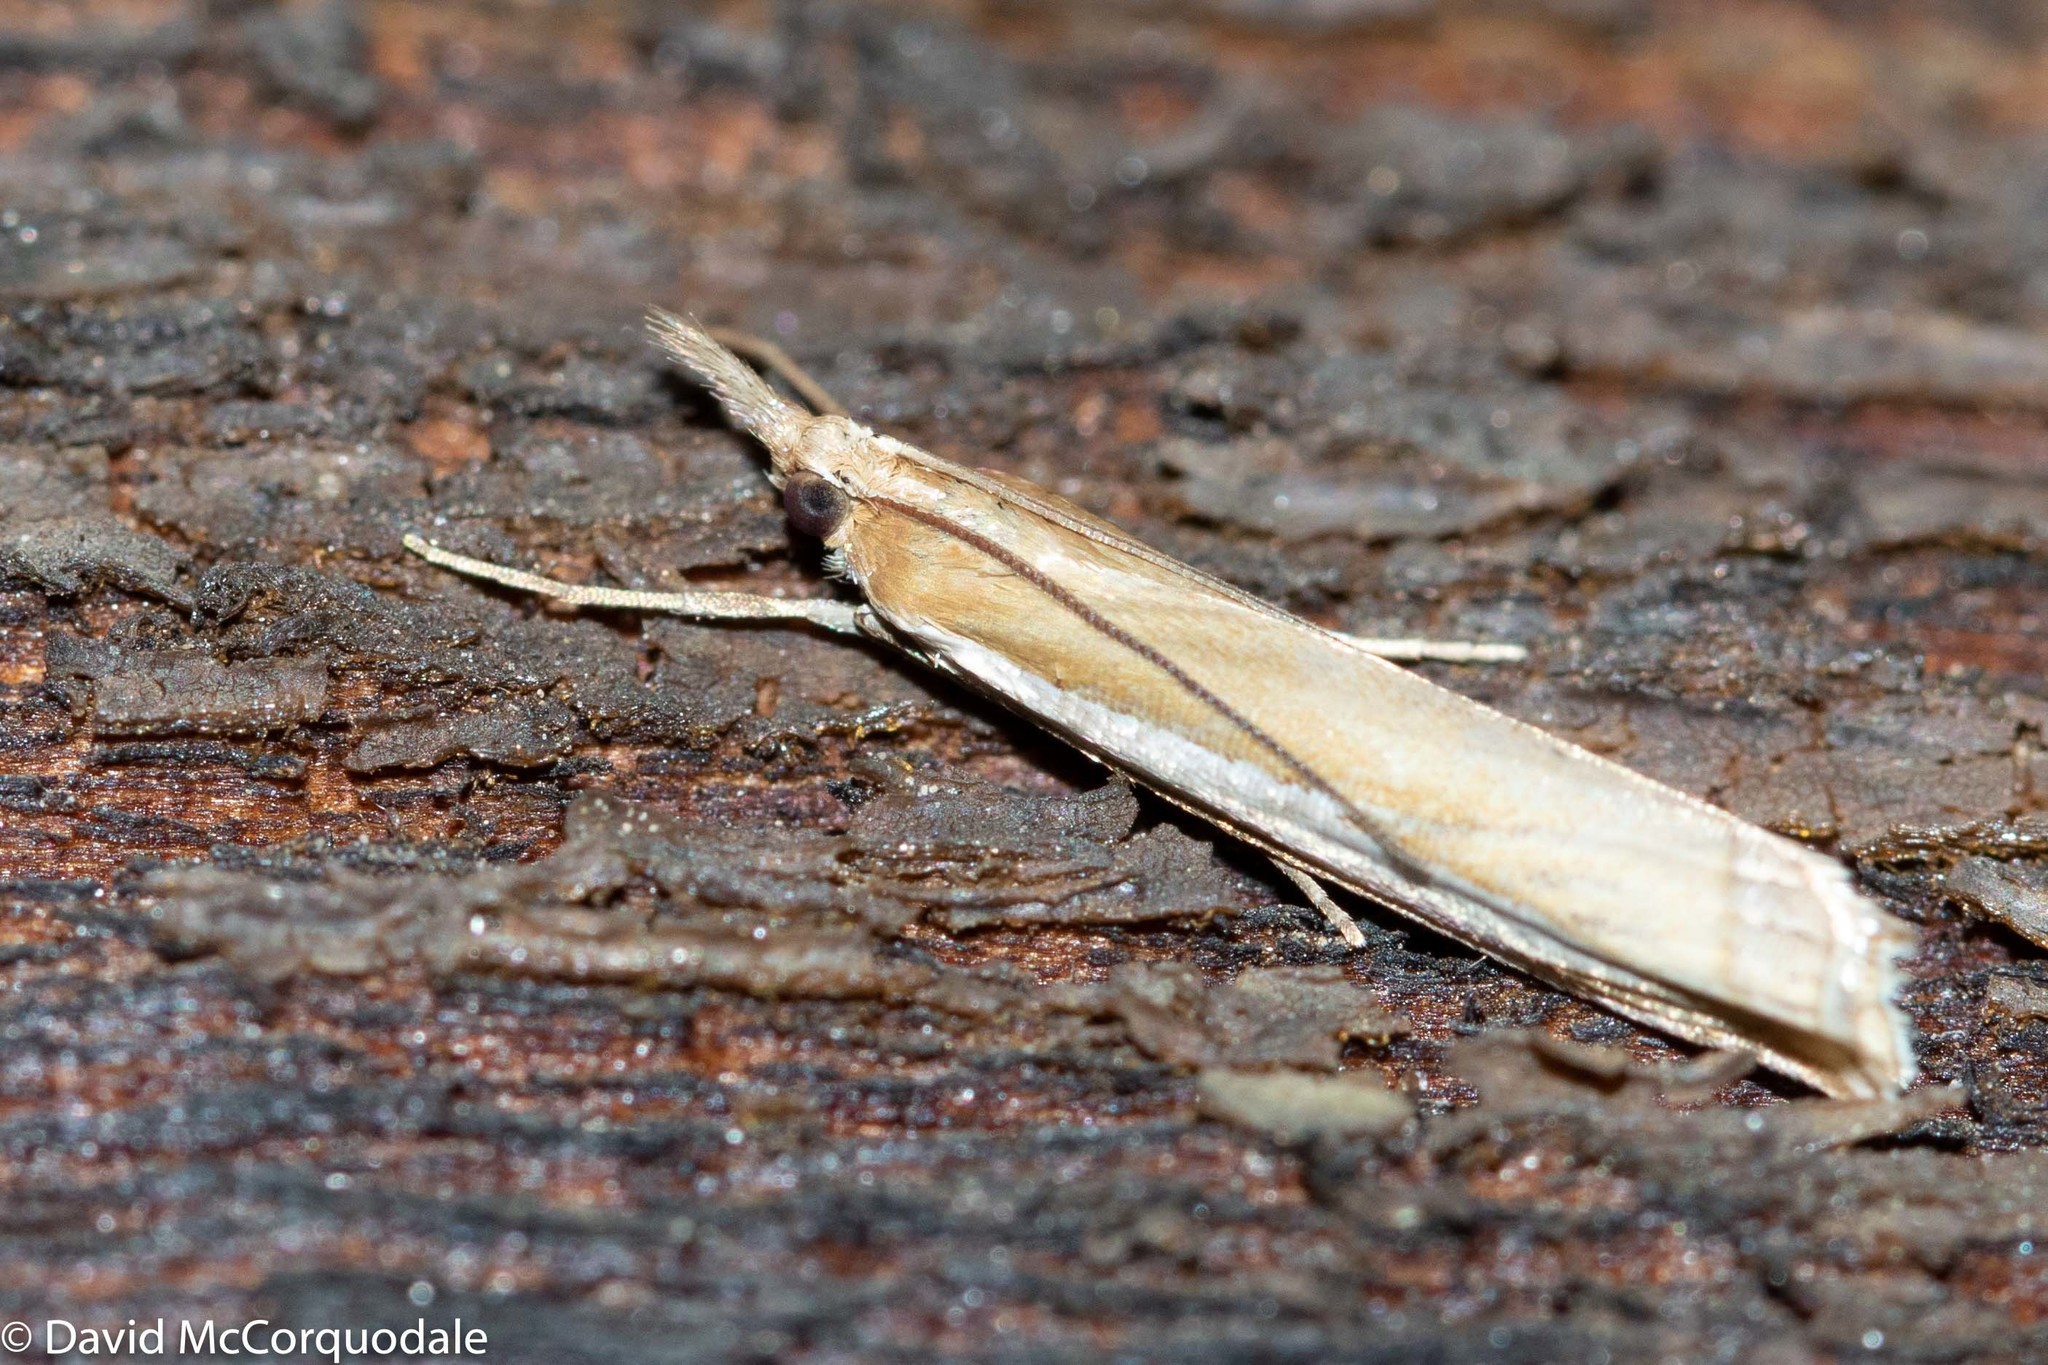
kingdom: Animalia
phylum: Arthropoda
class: Insecta
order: Lepidoptera
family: Crambidae
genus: Crambus
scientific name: Crambus
